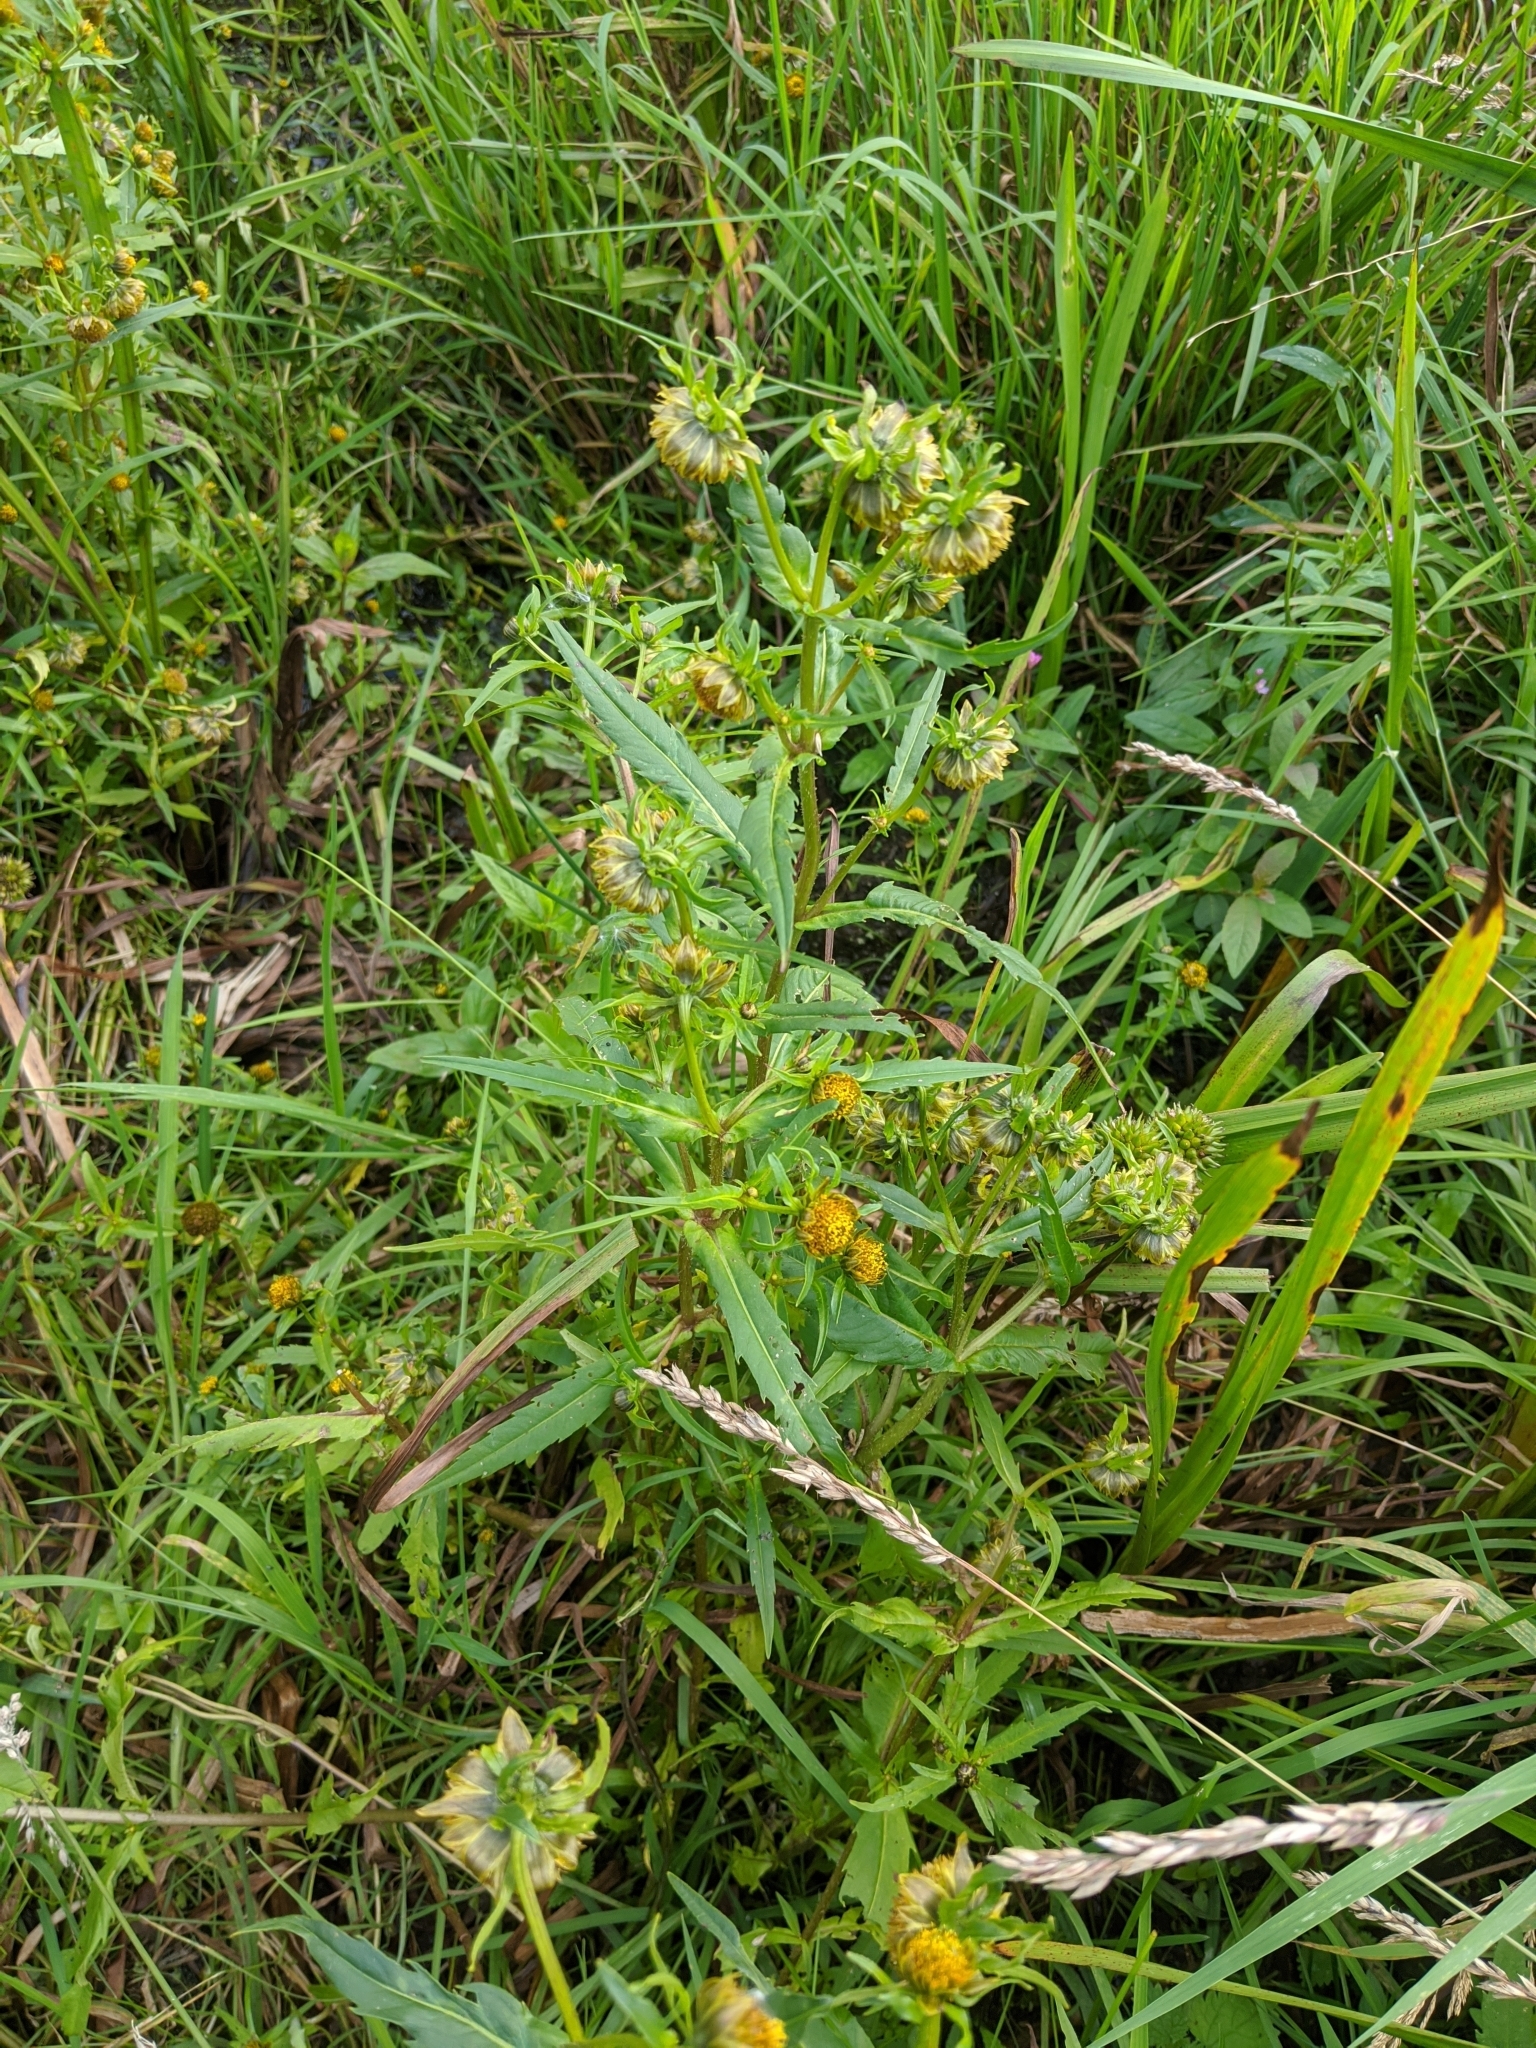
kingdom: Plantae
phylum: Tracheophyta
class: Magnoliopsida
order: Asterales
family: Asteraceae
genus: Bidens
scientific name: Bidens cernua
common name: Nodding bur-marigold
